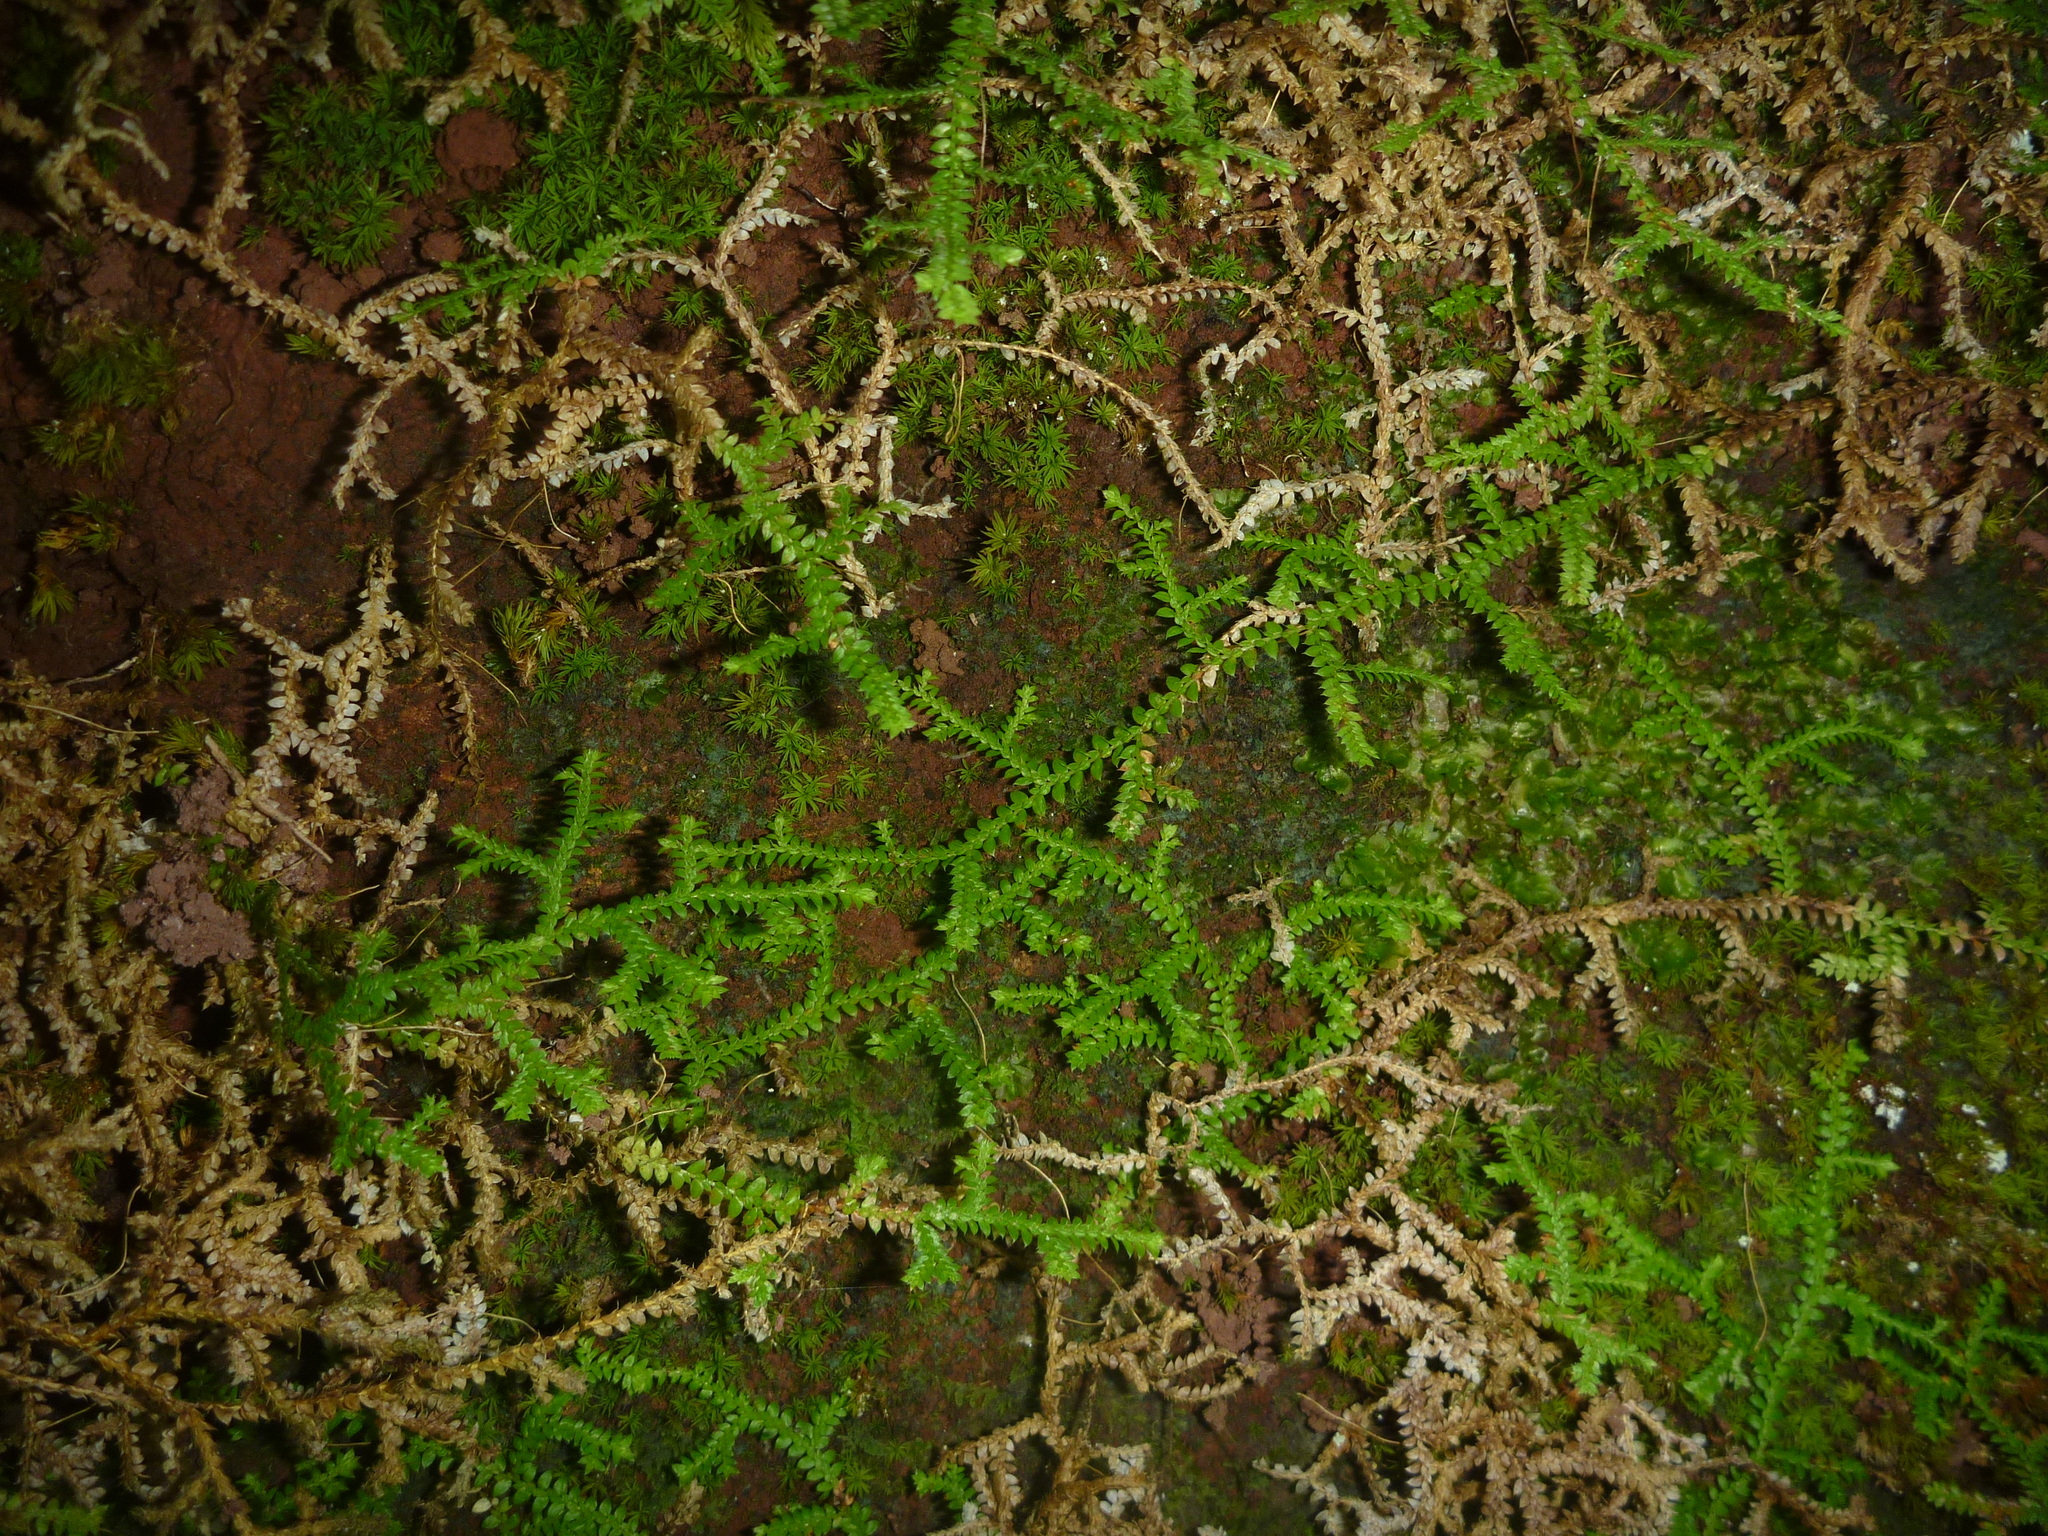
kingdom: Plantae
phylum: Tracheophyta
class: Lycopodiopsida
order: Selaginellales
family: Selaginellaceae
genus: Selaginella
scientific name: Selaginella denticulata
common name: Toothed-leaved clubmoss
